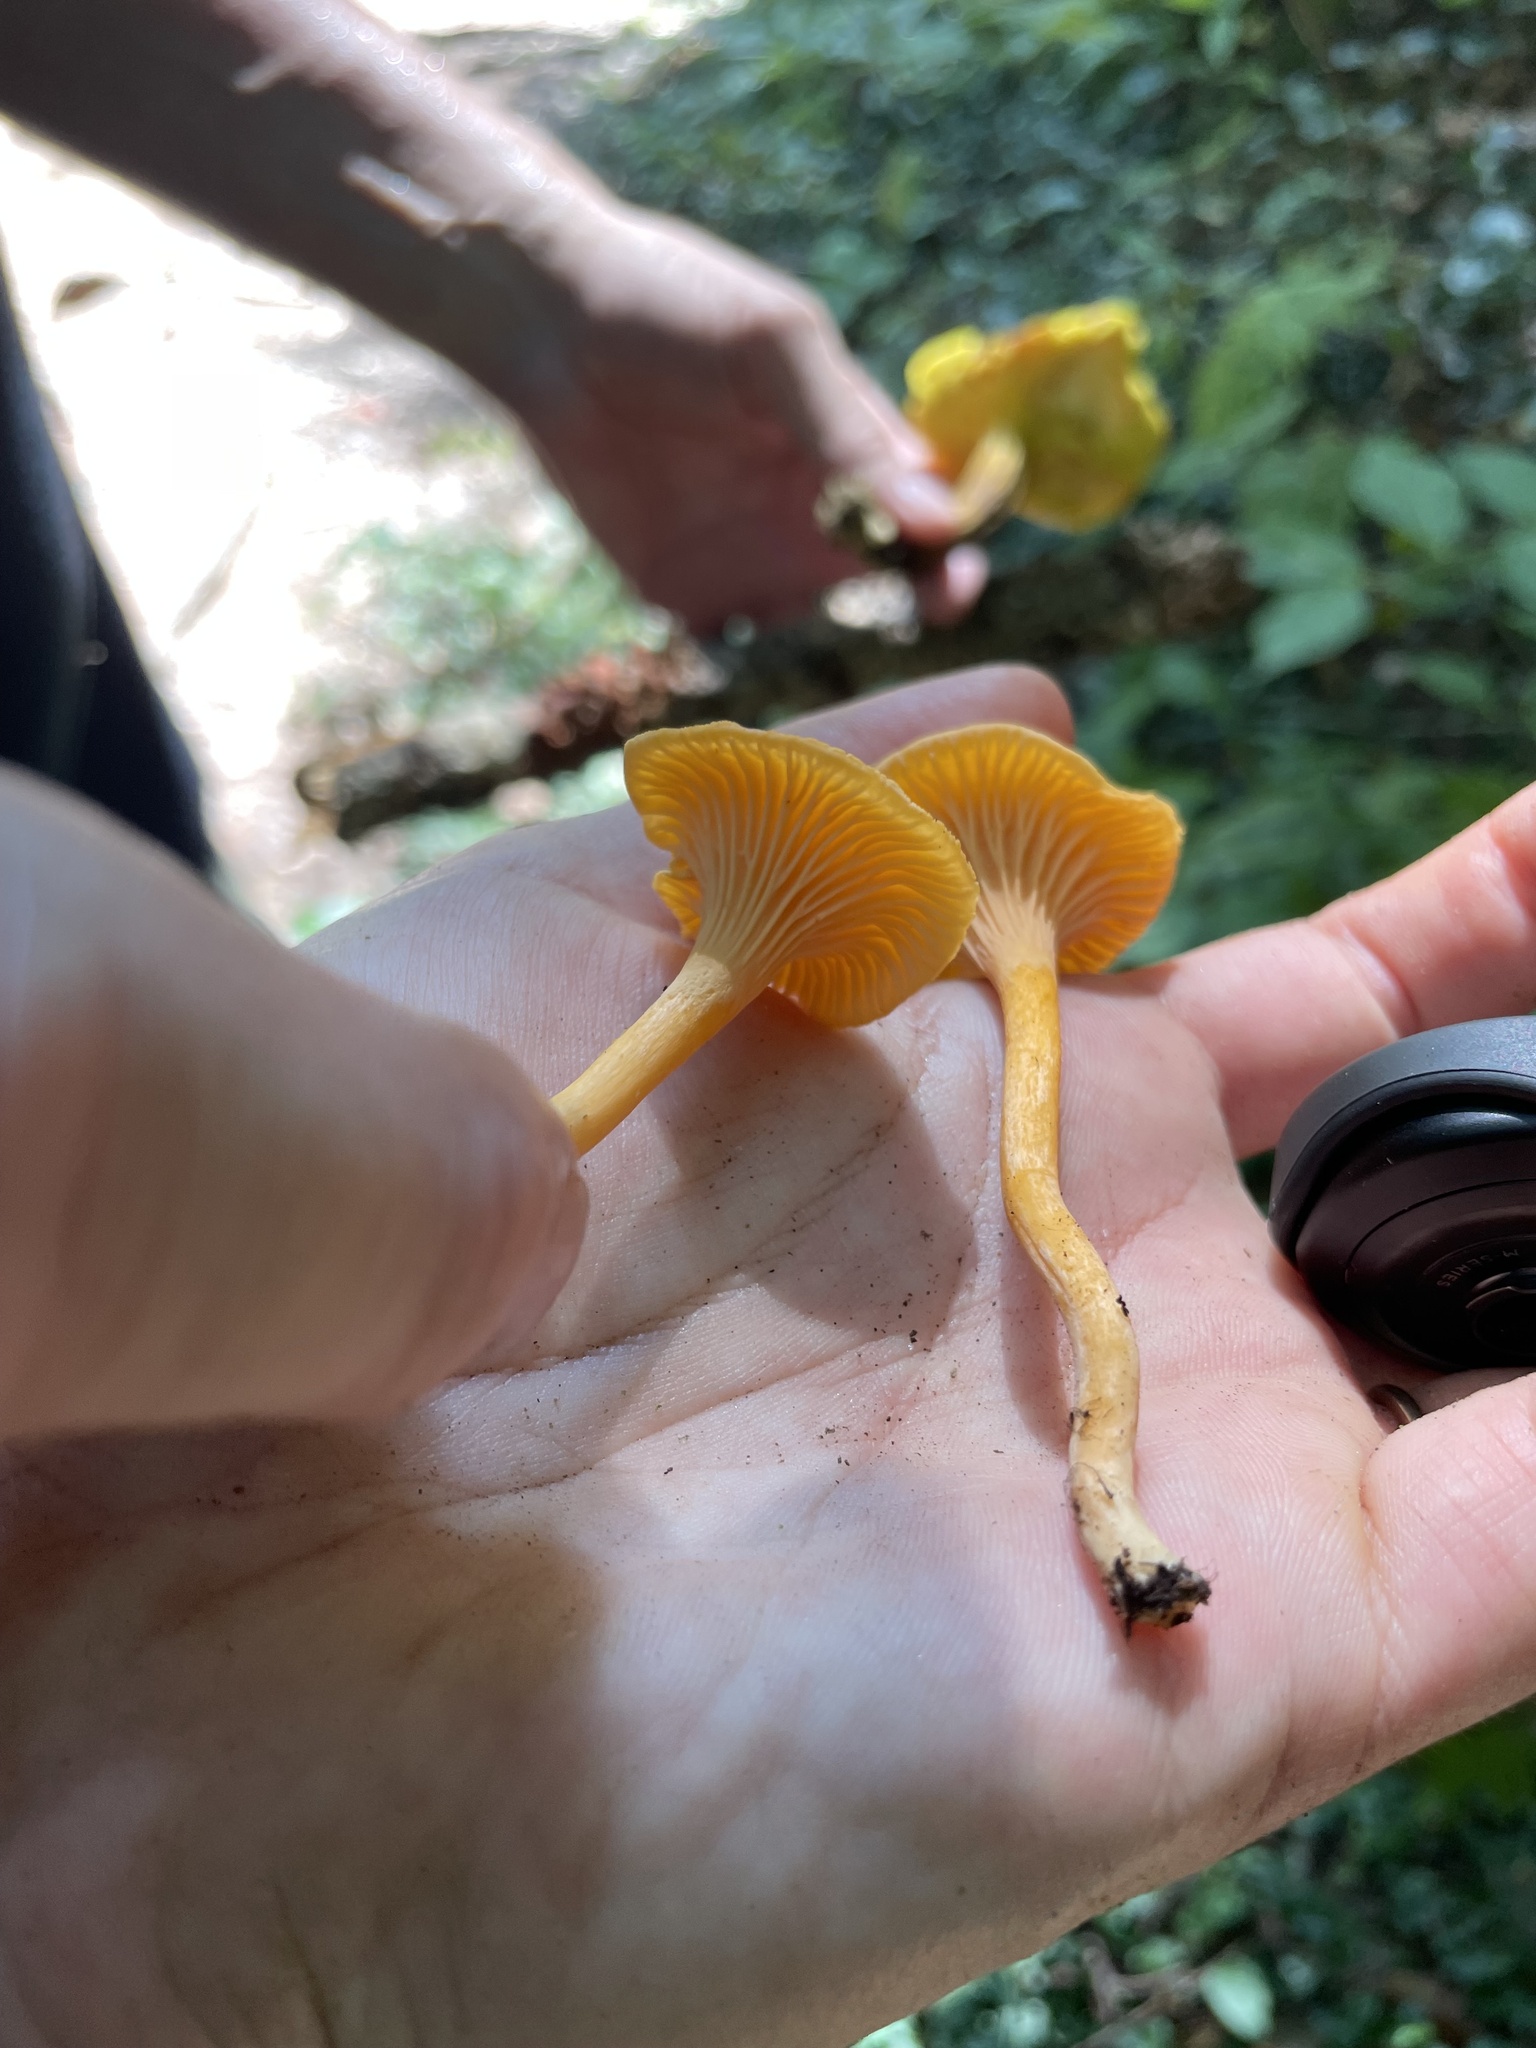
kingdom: Fungi
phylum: Basidiomycota
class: Agaricomycetes
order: Cantharellales
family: Hydnaceae
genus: Cantharellus
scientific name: Cantharellus persicinus
